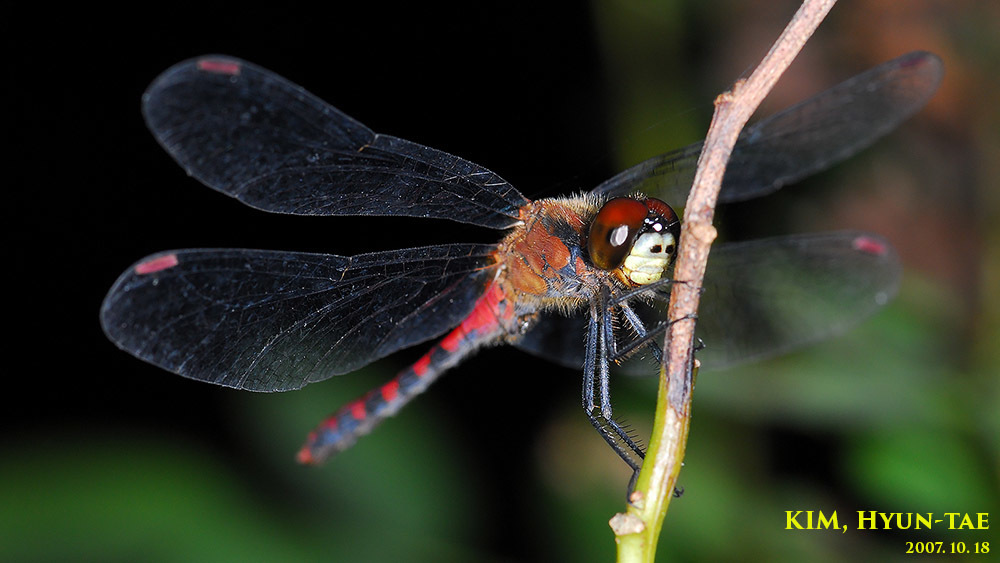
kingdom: Animalia
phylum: Arthropoda
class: Insecta
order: Odonata
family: Libellulidae
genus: Sympetrum
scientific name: Sympetrum eroticum
